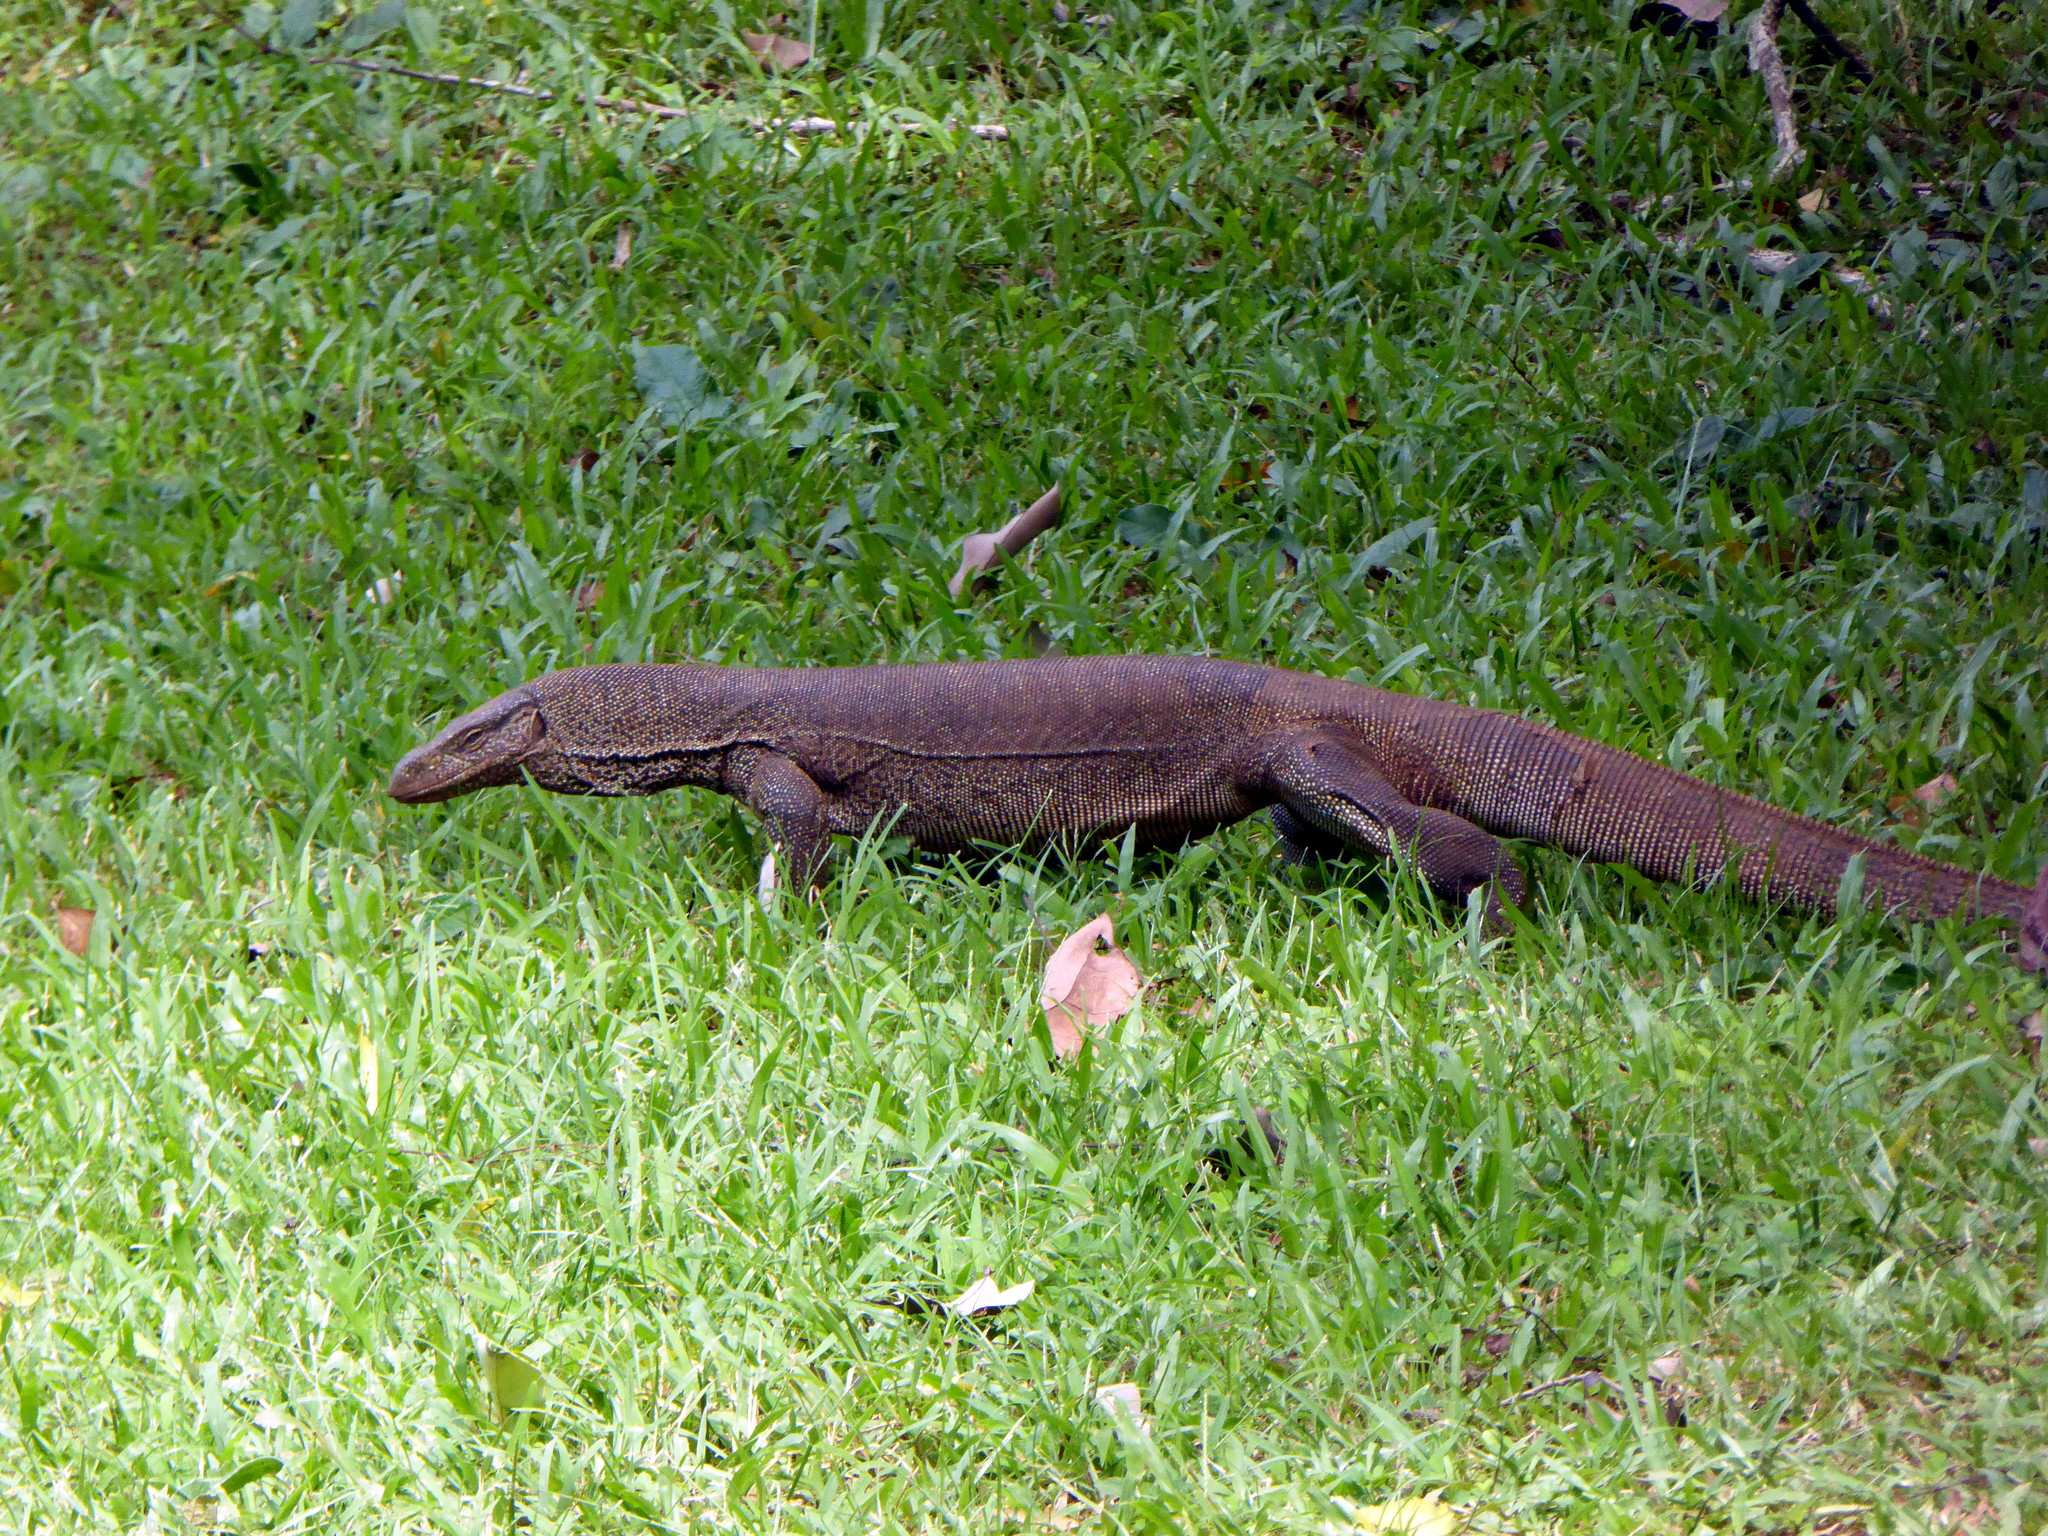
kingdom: Animalia
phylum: Chordata
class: Squamata
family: Varanidae
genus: Varanus
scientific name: Varanus bengalensis
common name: Bengal monitor
